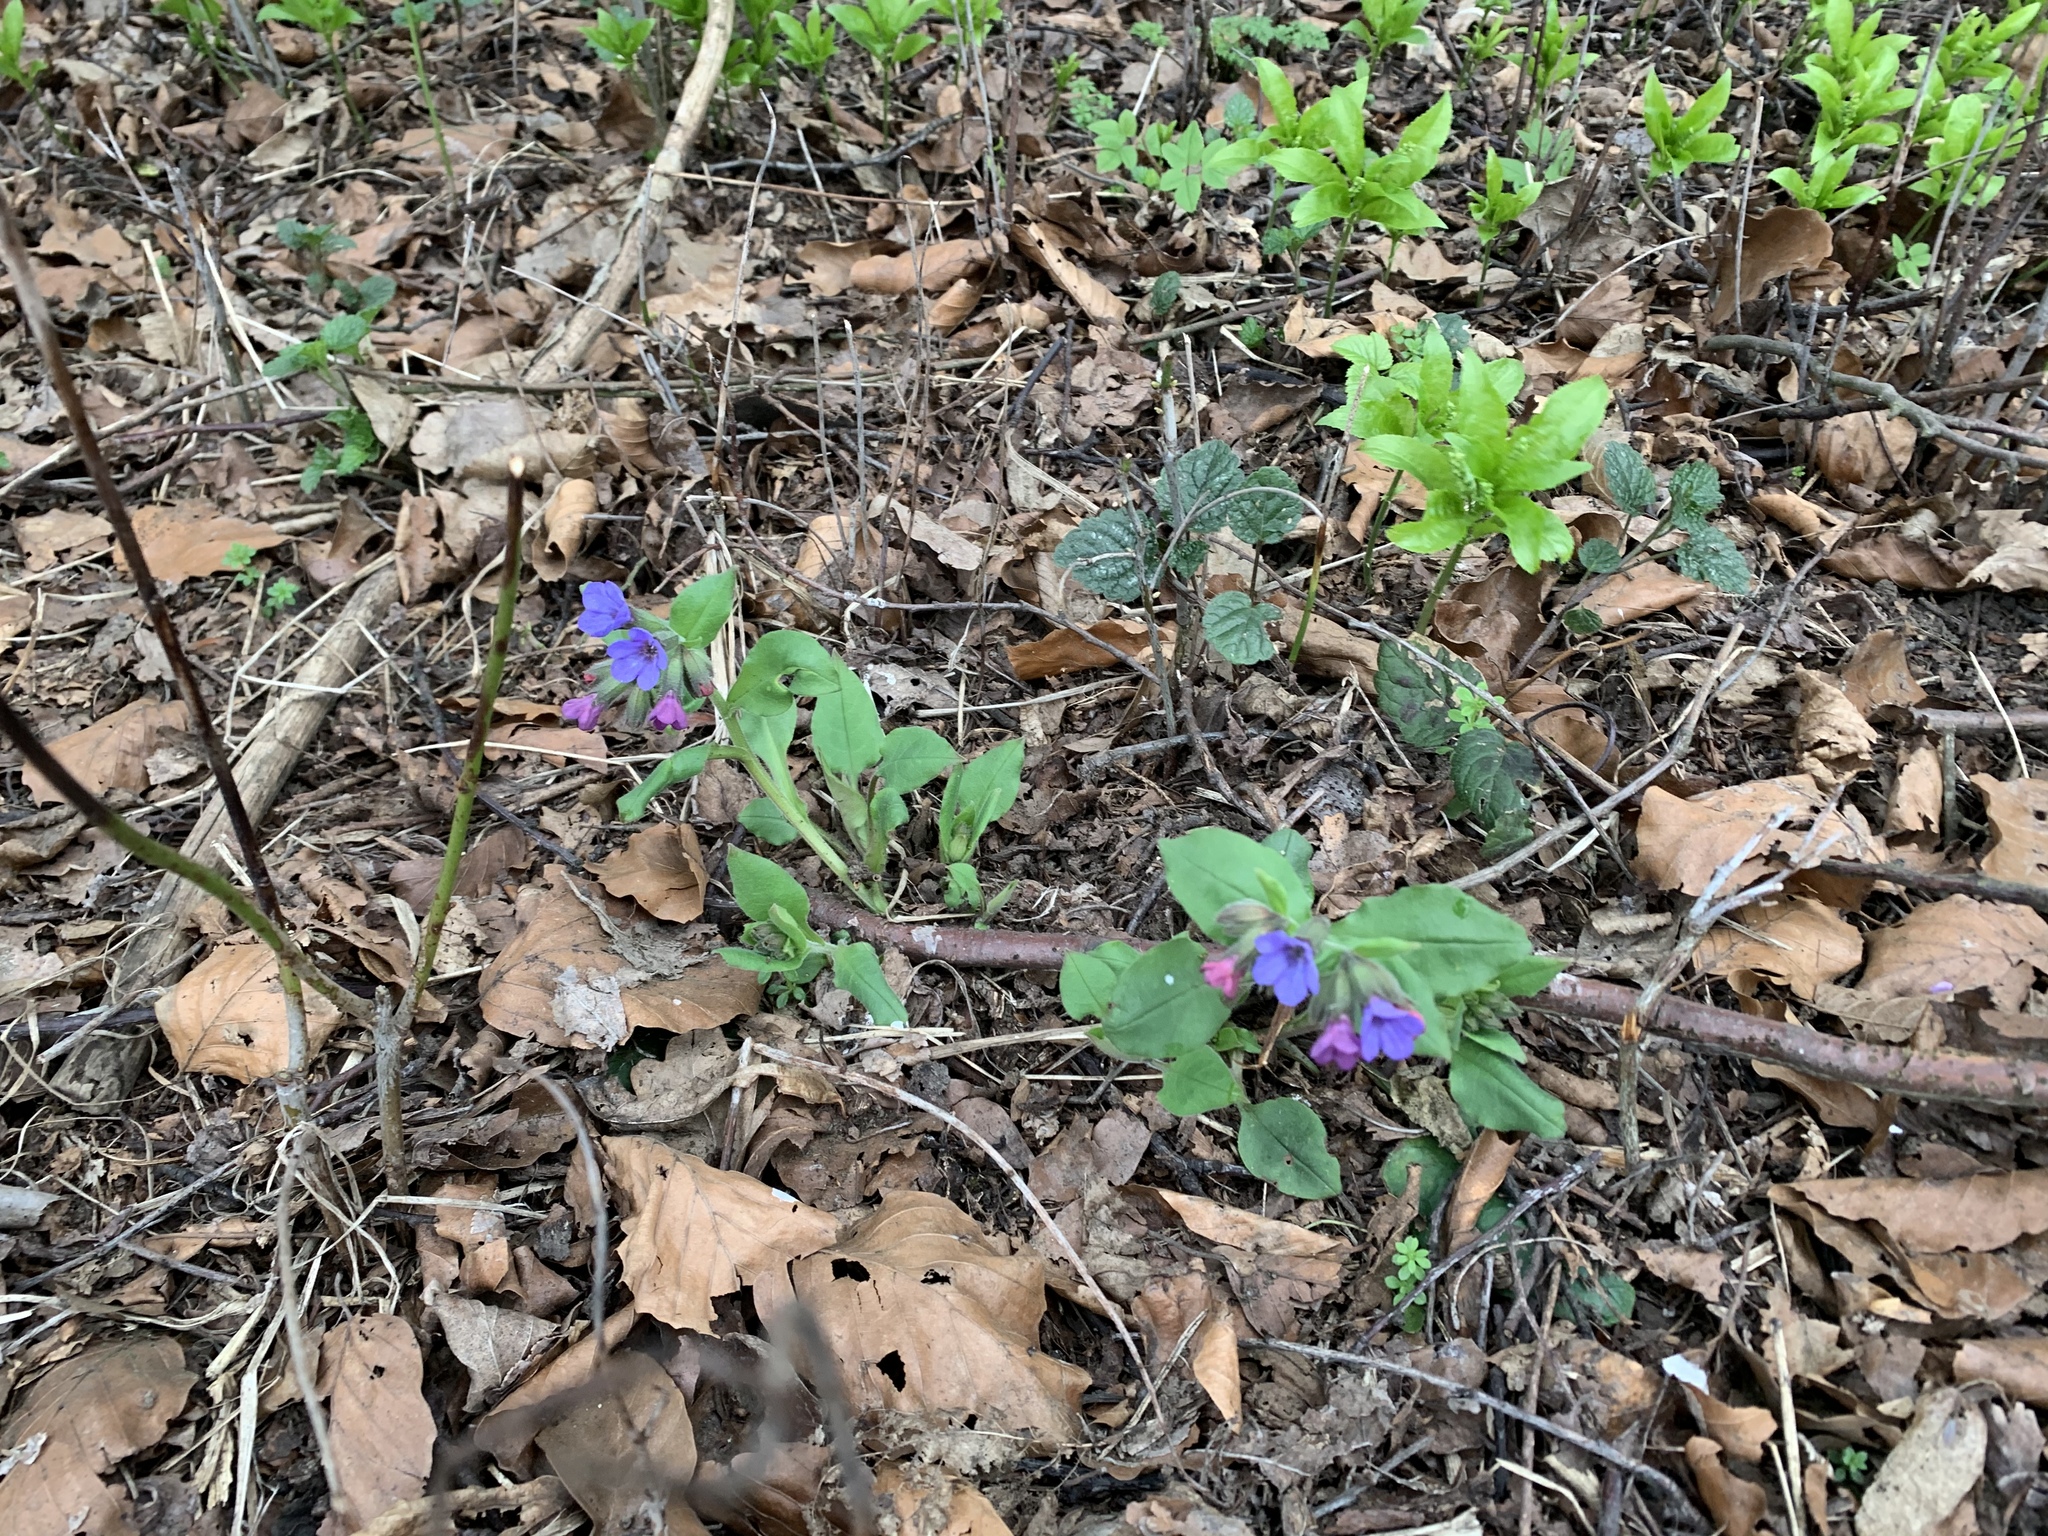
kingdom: Plantae
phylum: Tracheophyta
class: Magnoliopsida
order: Boraginales
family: Boraginaceae
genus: Pulmonaria
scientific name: Pulmonaria obscura
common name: Suffolk lungwort
